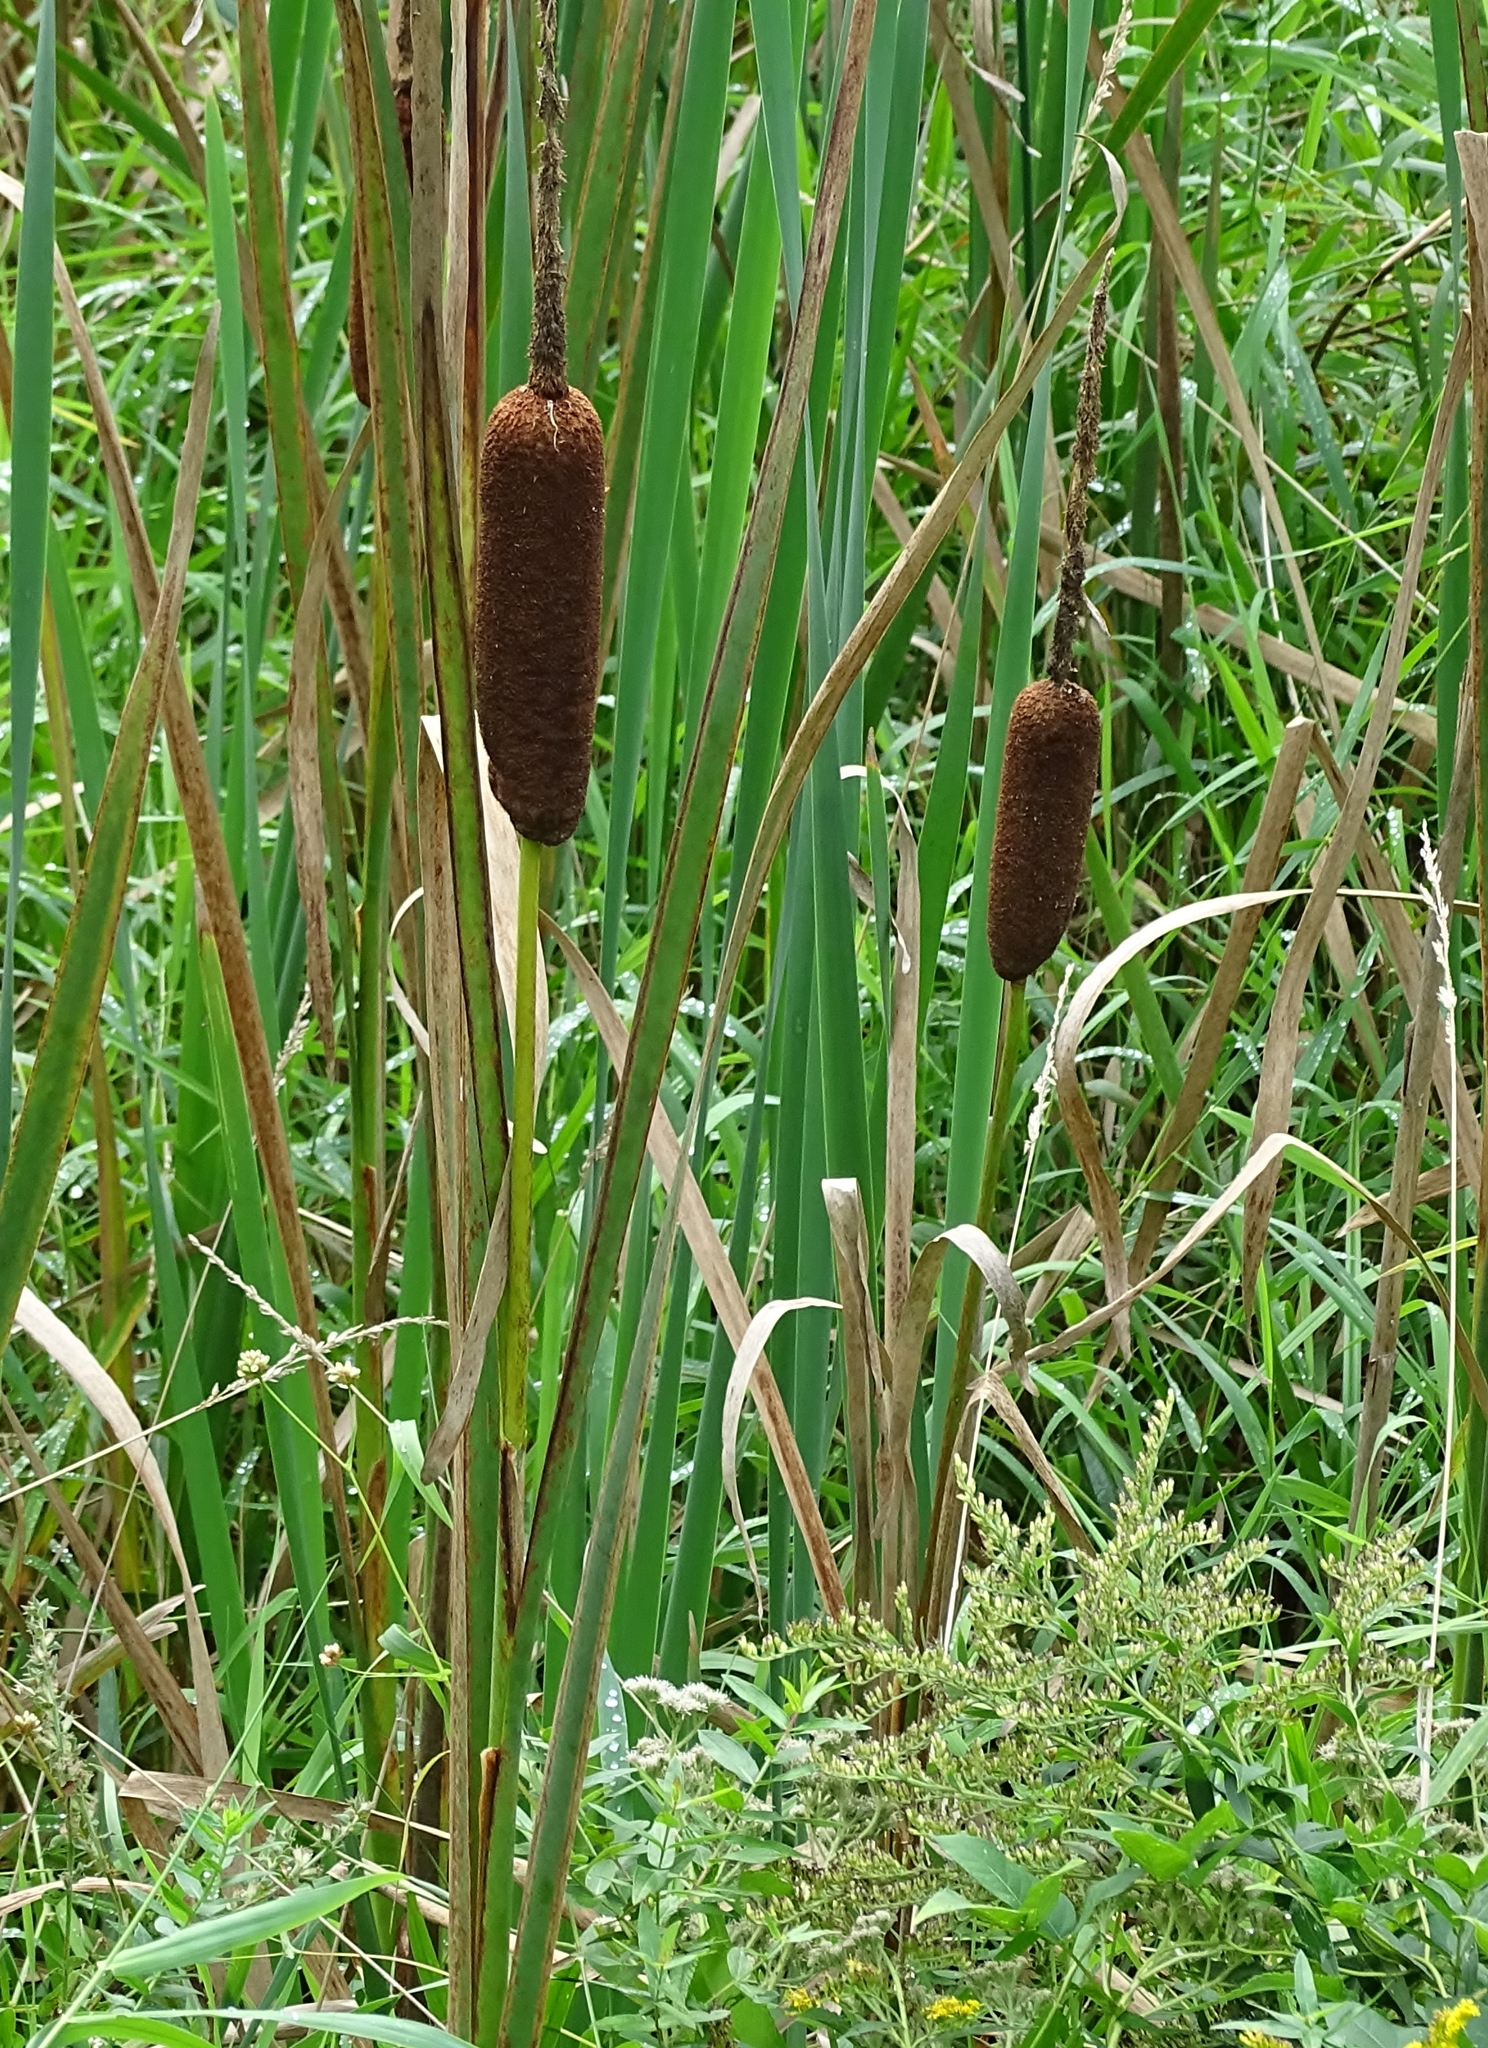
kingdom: Plantae
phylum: Tracheophyta
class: Liliopsida
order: Poales
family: Typhaceae
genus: Typha
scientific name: Typha latifolia
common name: Broadleaf cattail
